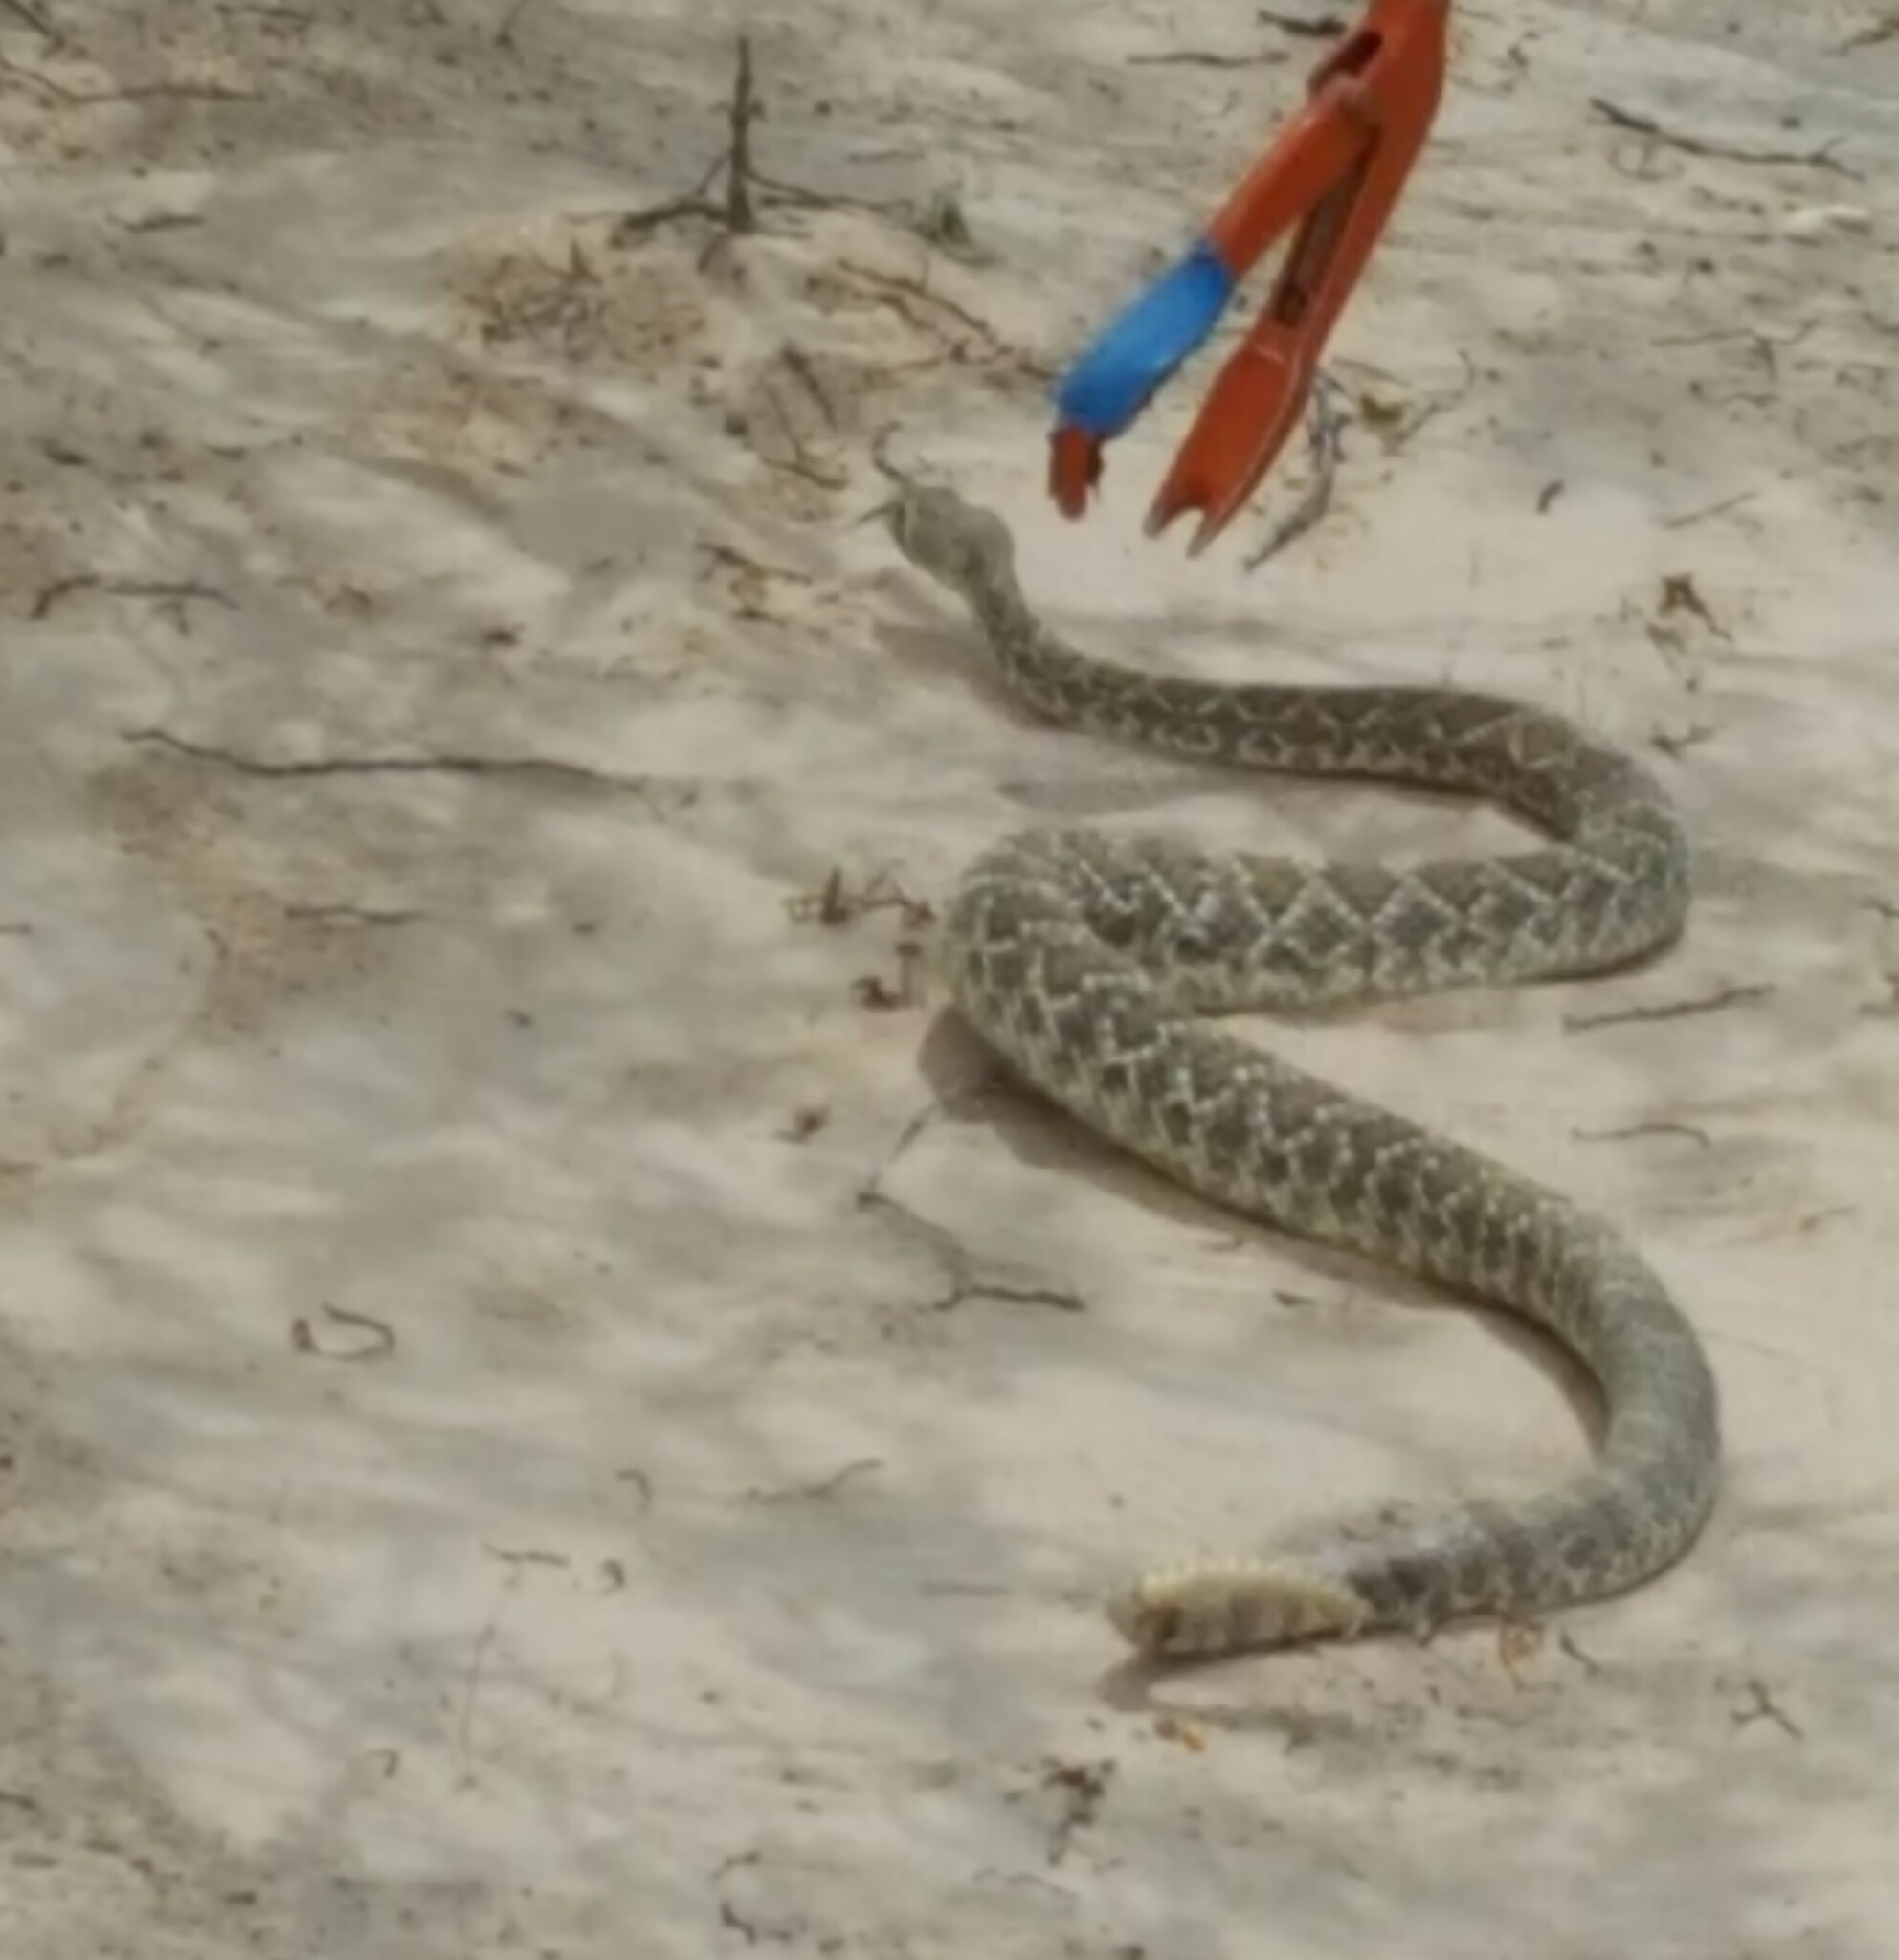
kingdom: Animalia
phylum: Chordata
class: Squamata
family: Viperidae
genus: Crotalus
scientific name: Crotalus scutulatus
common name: Scutulatus
